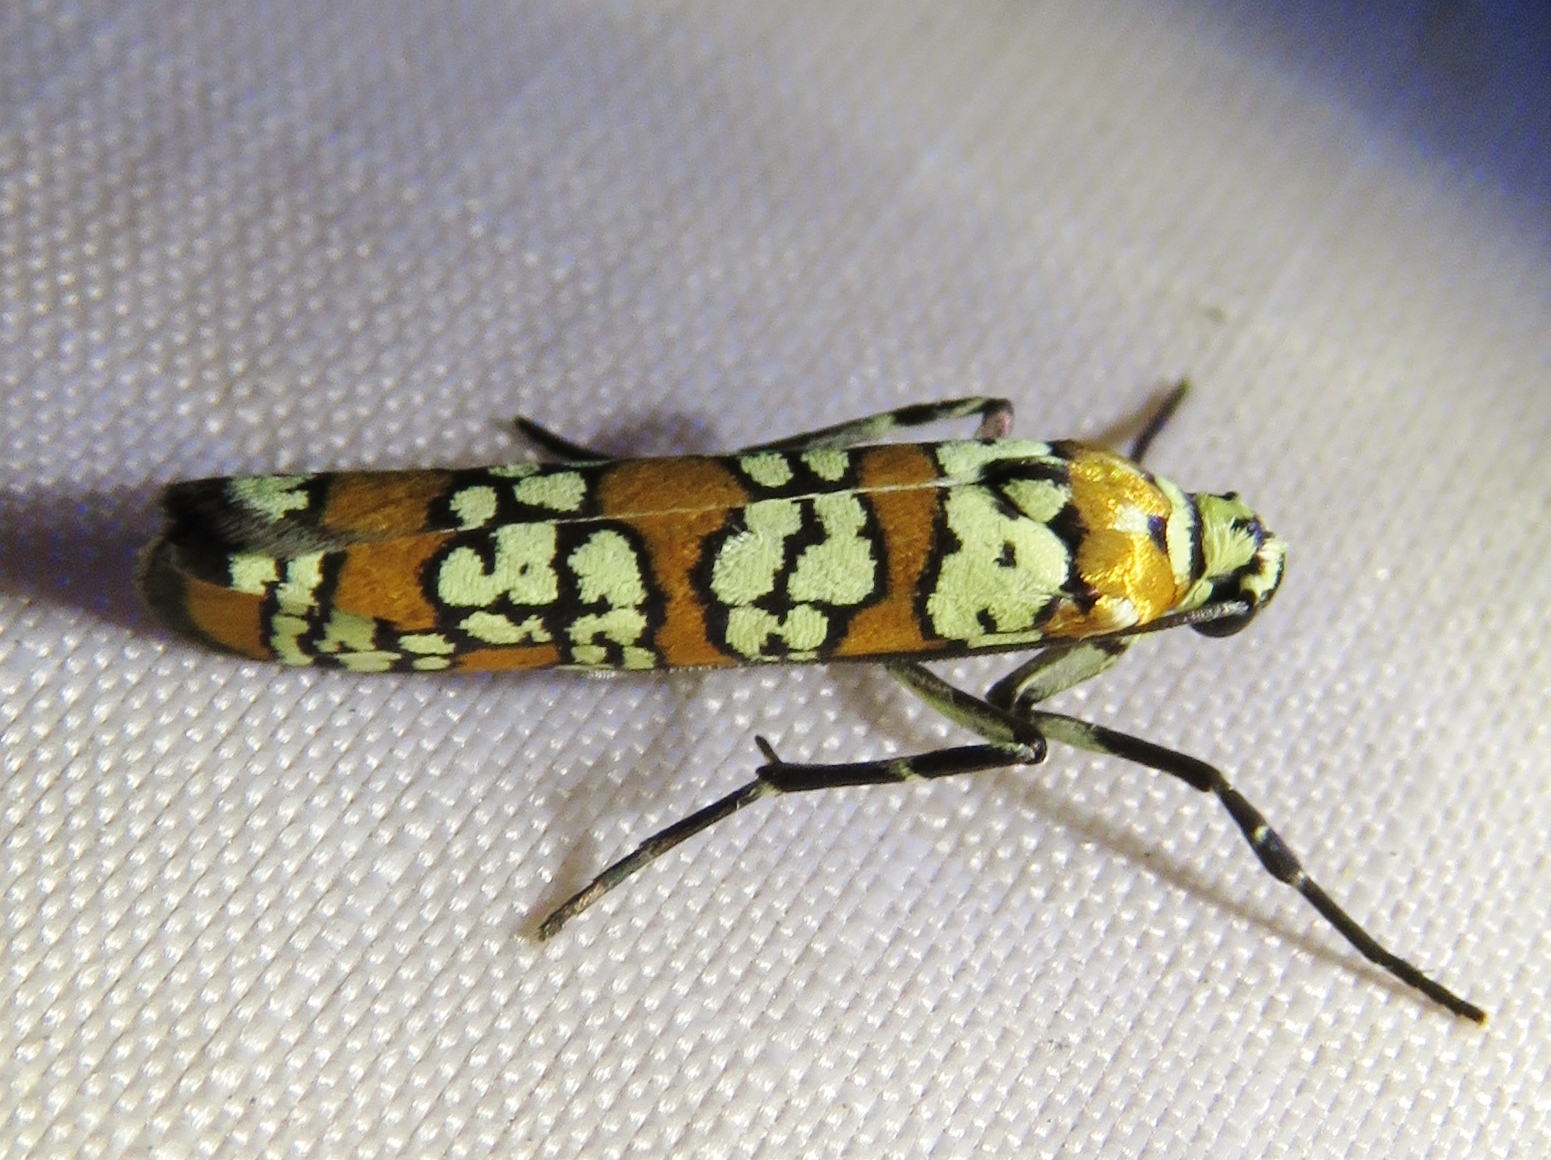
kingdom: Animalia
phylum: Arthropoda
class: Insecta
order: Lepidoptera
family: Attevidae
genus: Atteva
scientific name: Atteva punctella
